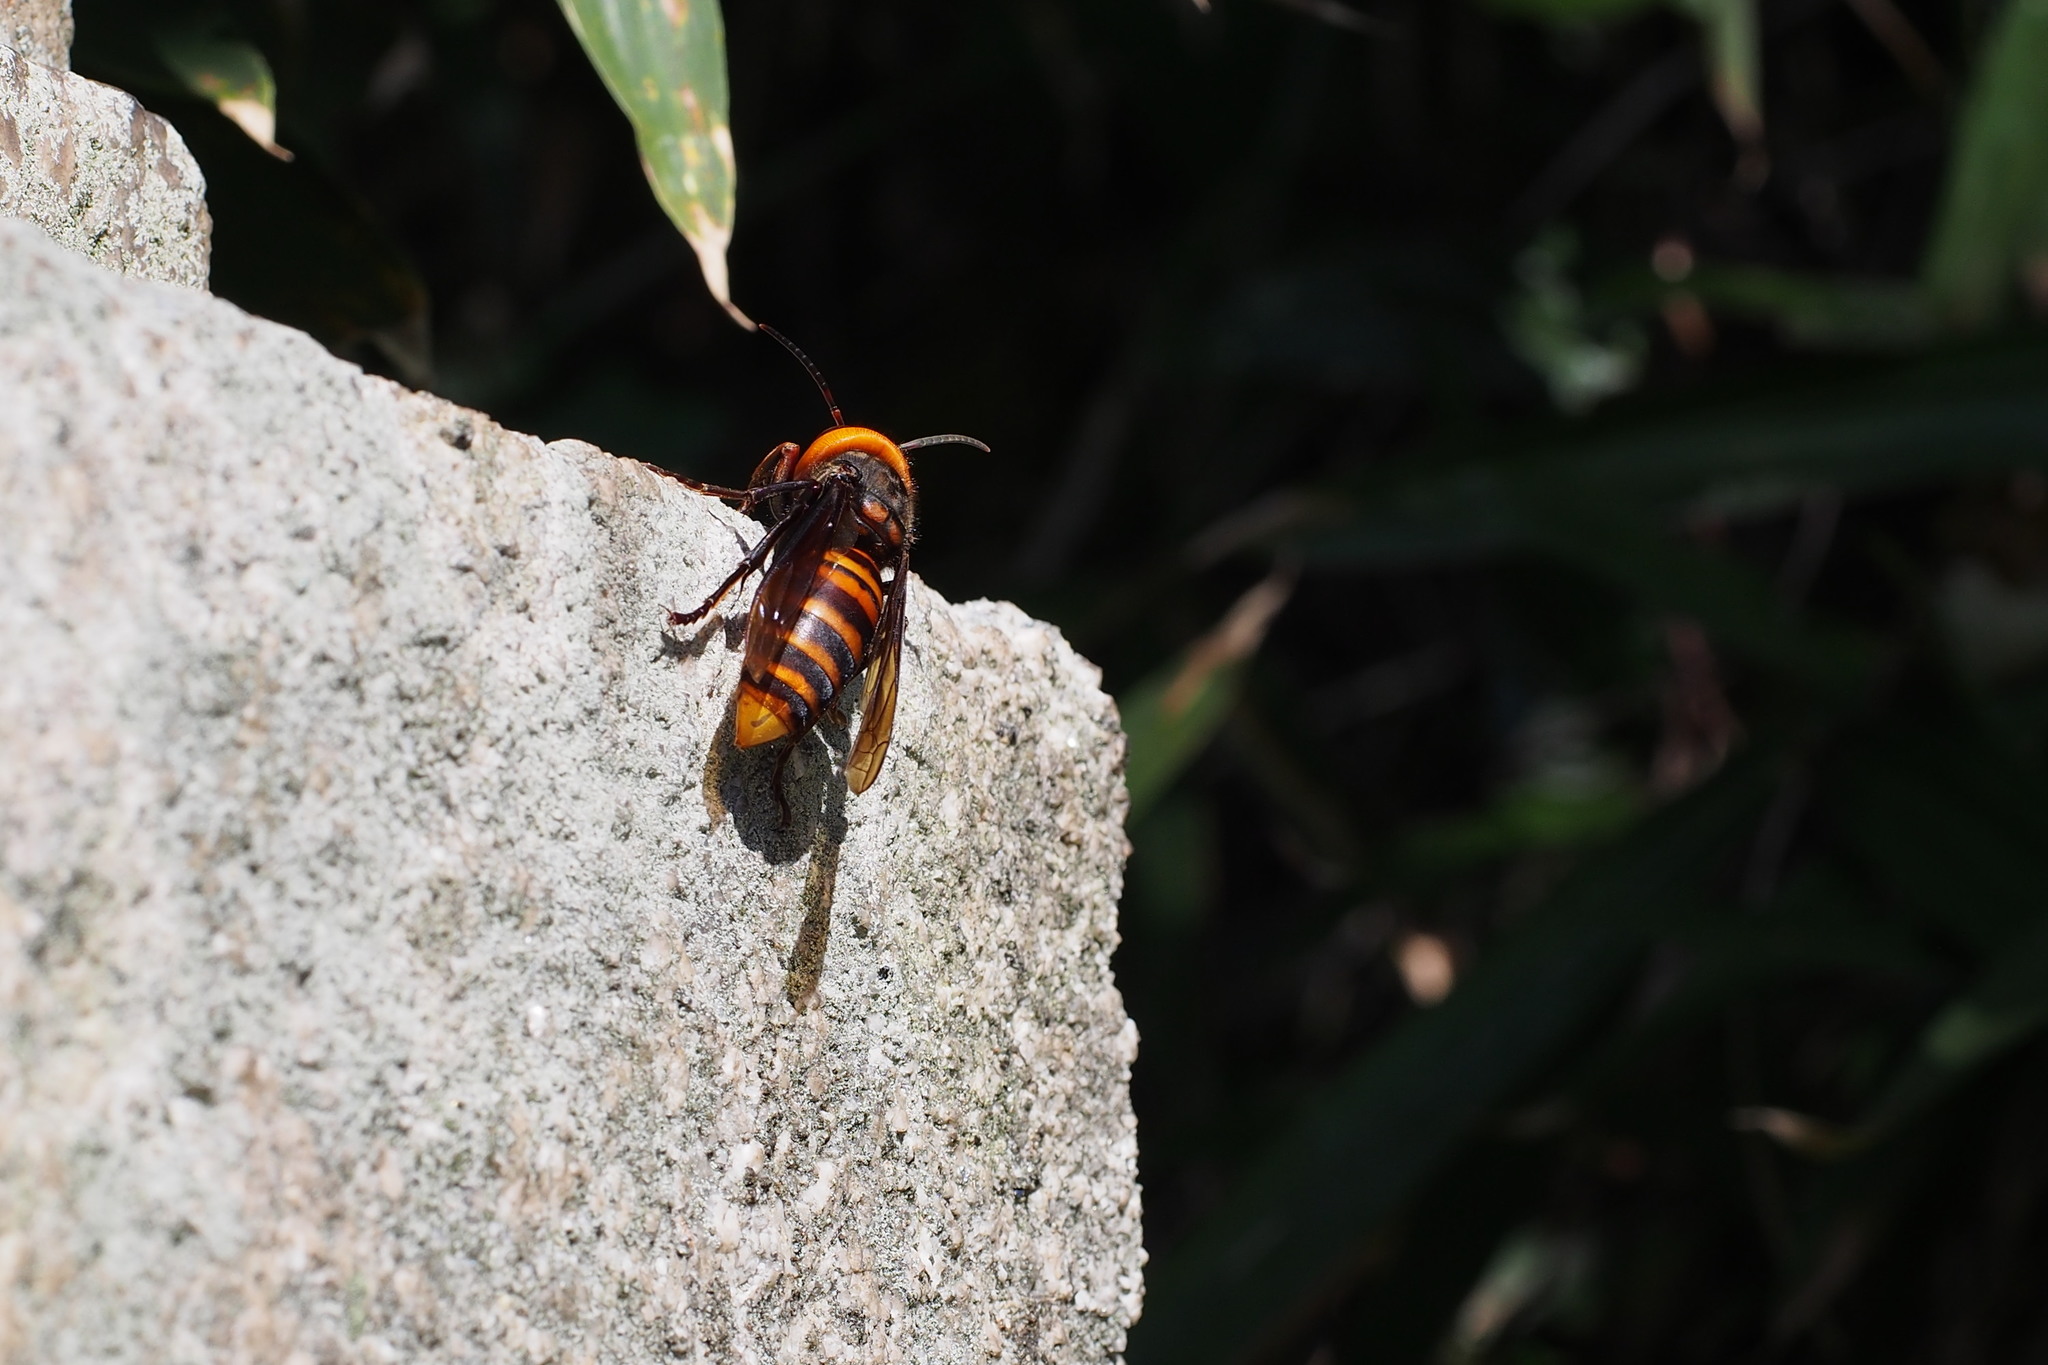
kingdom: Animalia
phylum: Arthropoda
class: Insecta
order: Hymenoptera
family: Vespidae
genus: Vespa
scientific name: Vespa mandarinia
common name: Asian giant hornet
